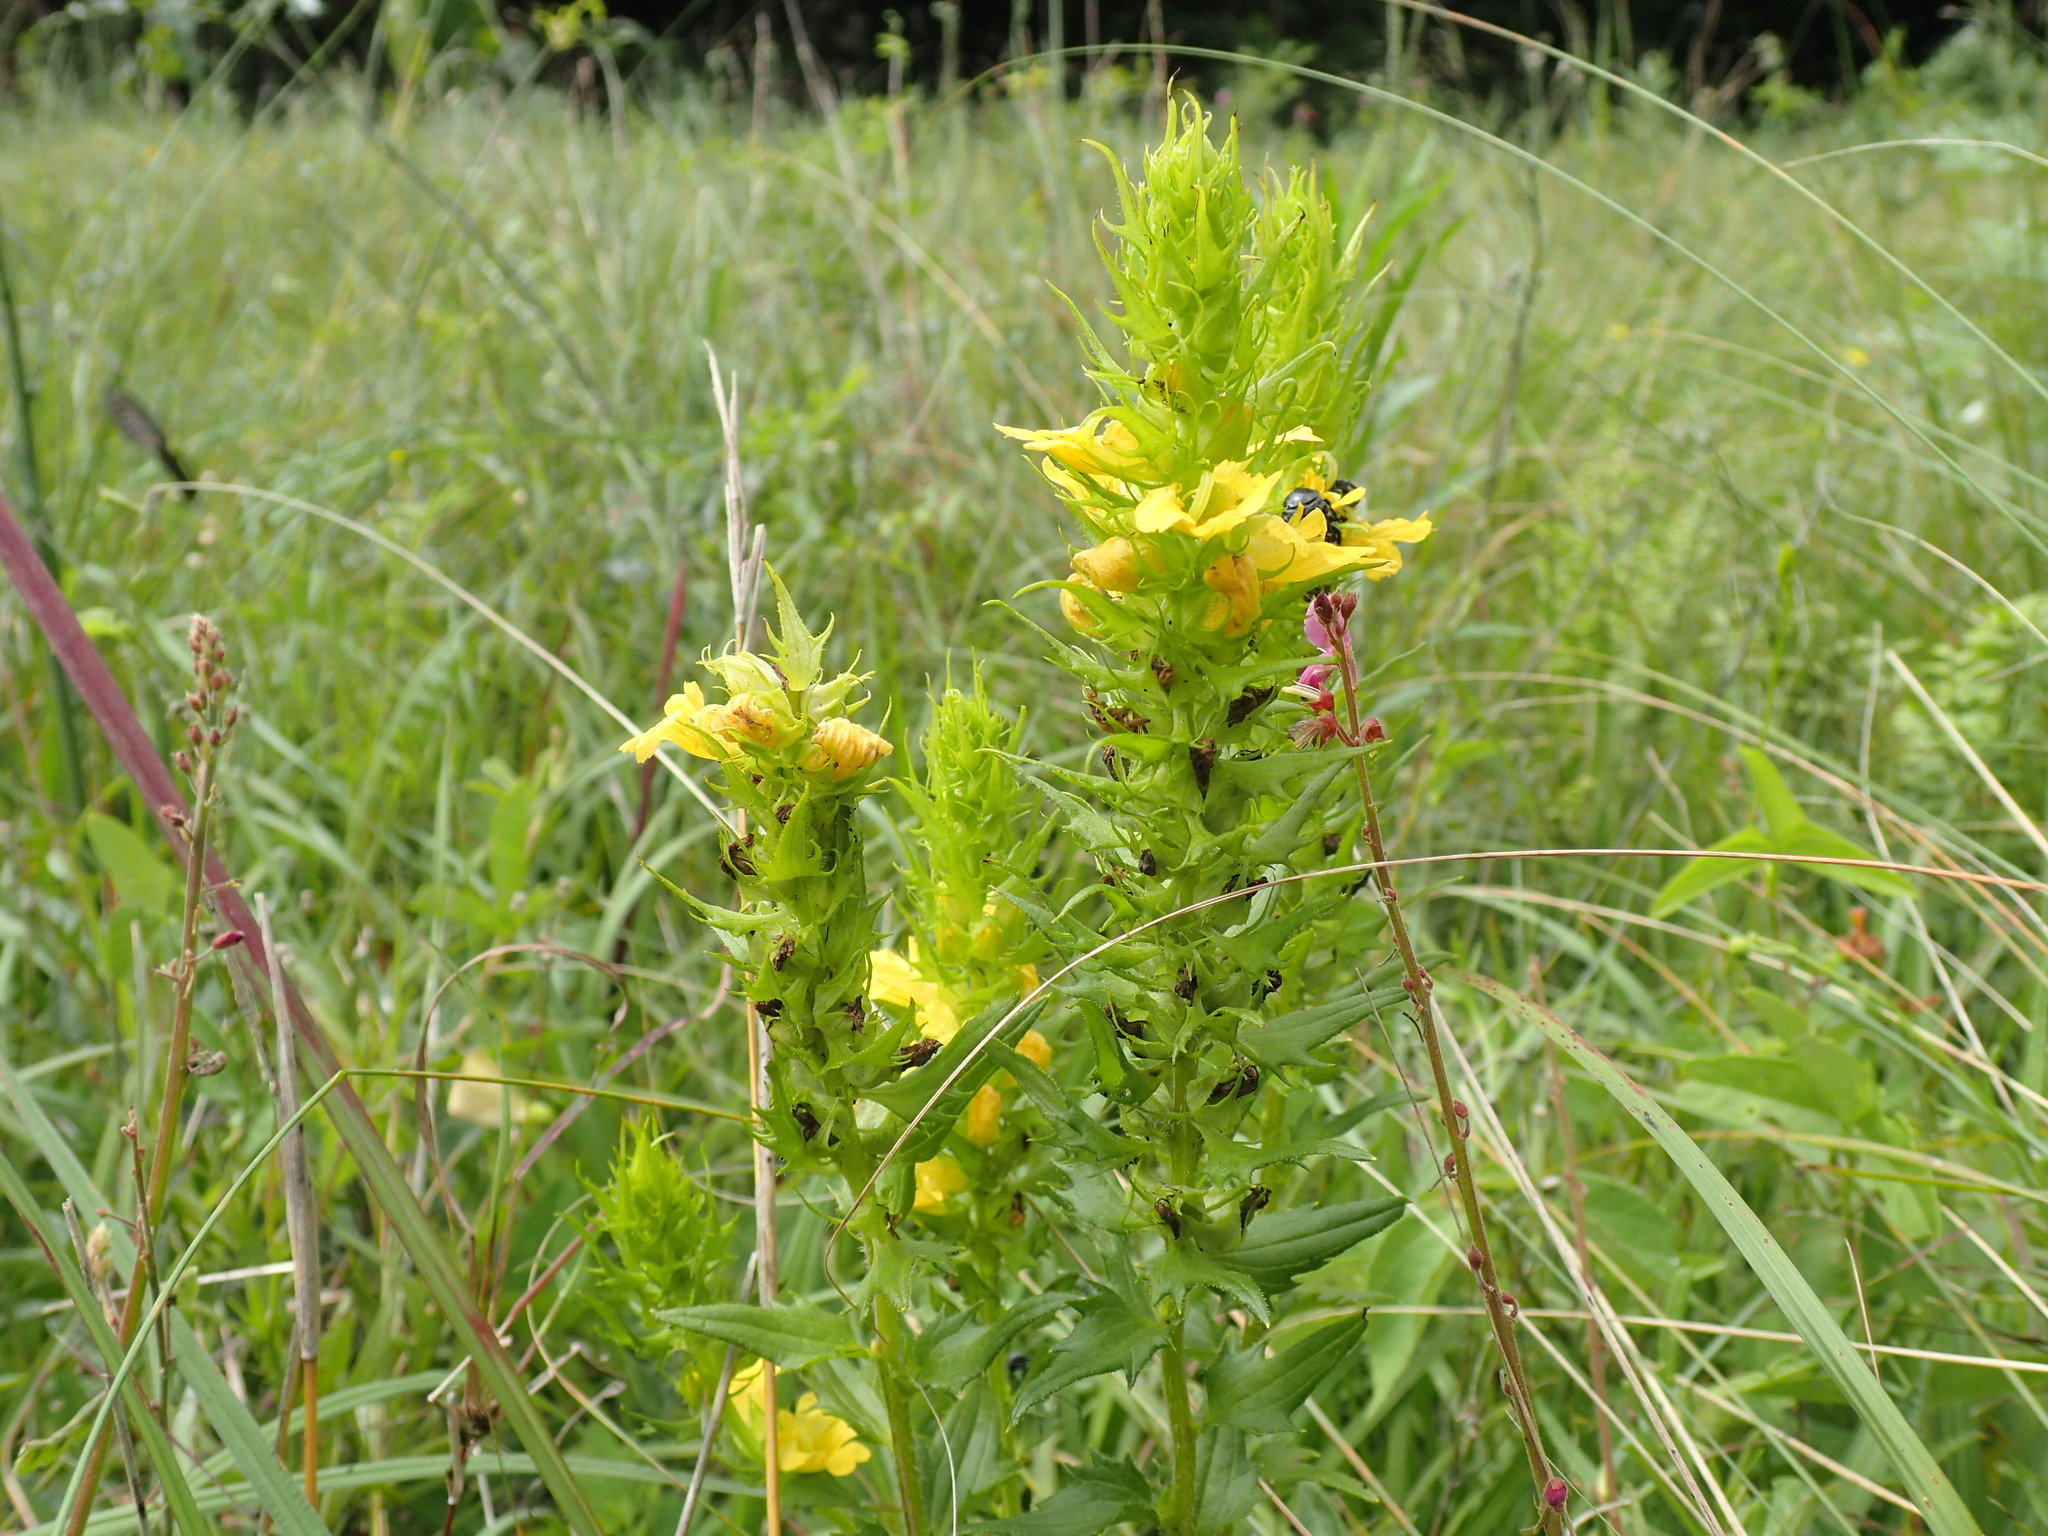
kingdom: Plantae
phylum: Tracheophyta
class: Magnoliopsida
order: Lamiales
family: Orobanchaceae
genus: Alectra
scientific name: Alectra sessiliflora
